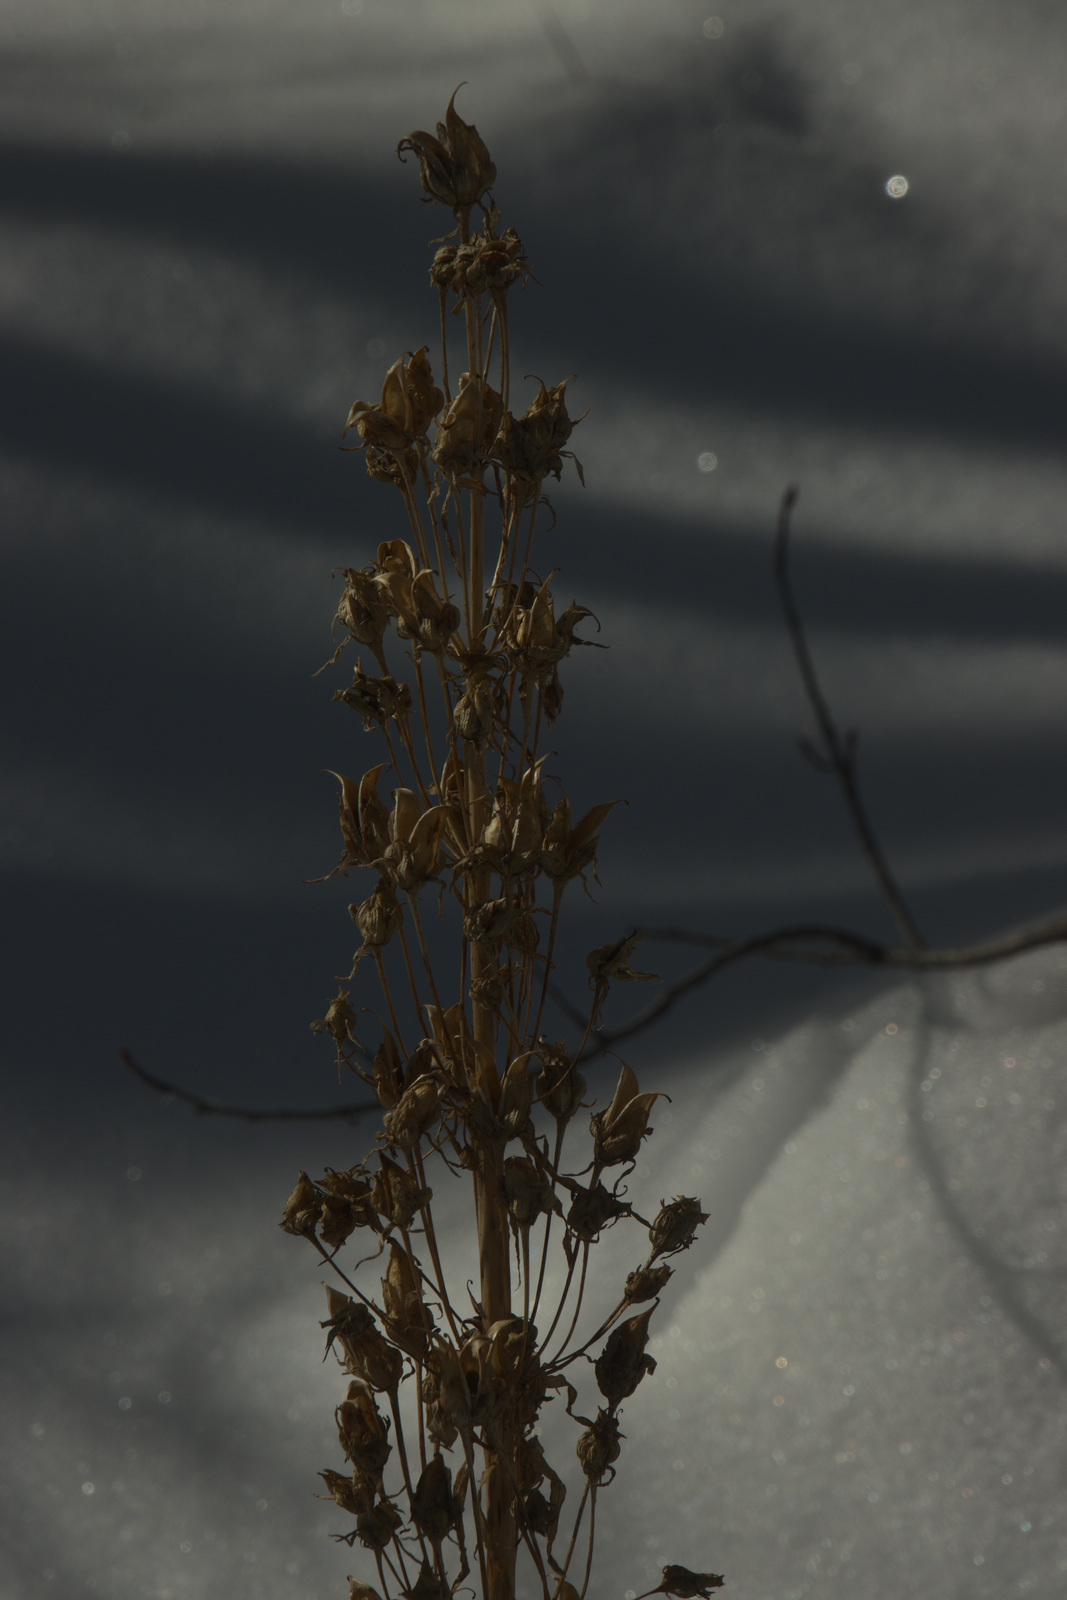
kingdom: Plantae
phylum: Tracheophyta
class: Magnoliopsida
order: Gentianales
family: Gentianaceae
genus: Frasera
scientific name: Frasera speciosa
